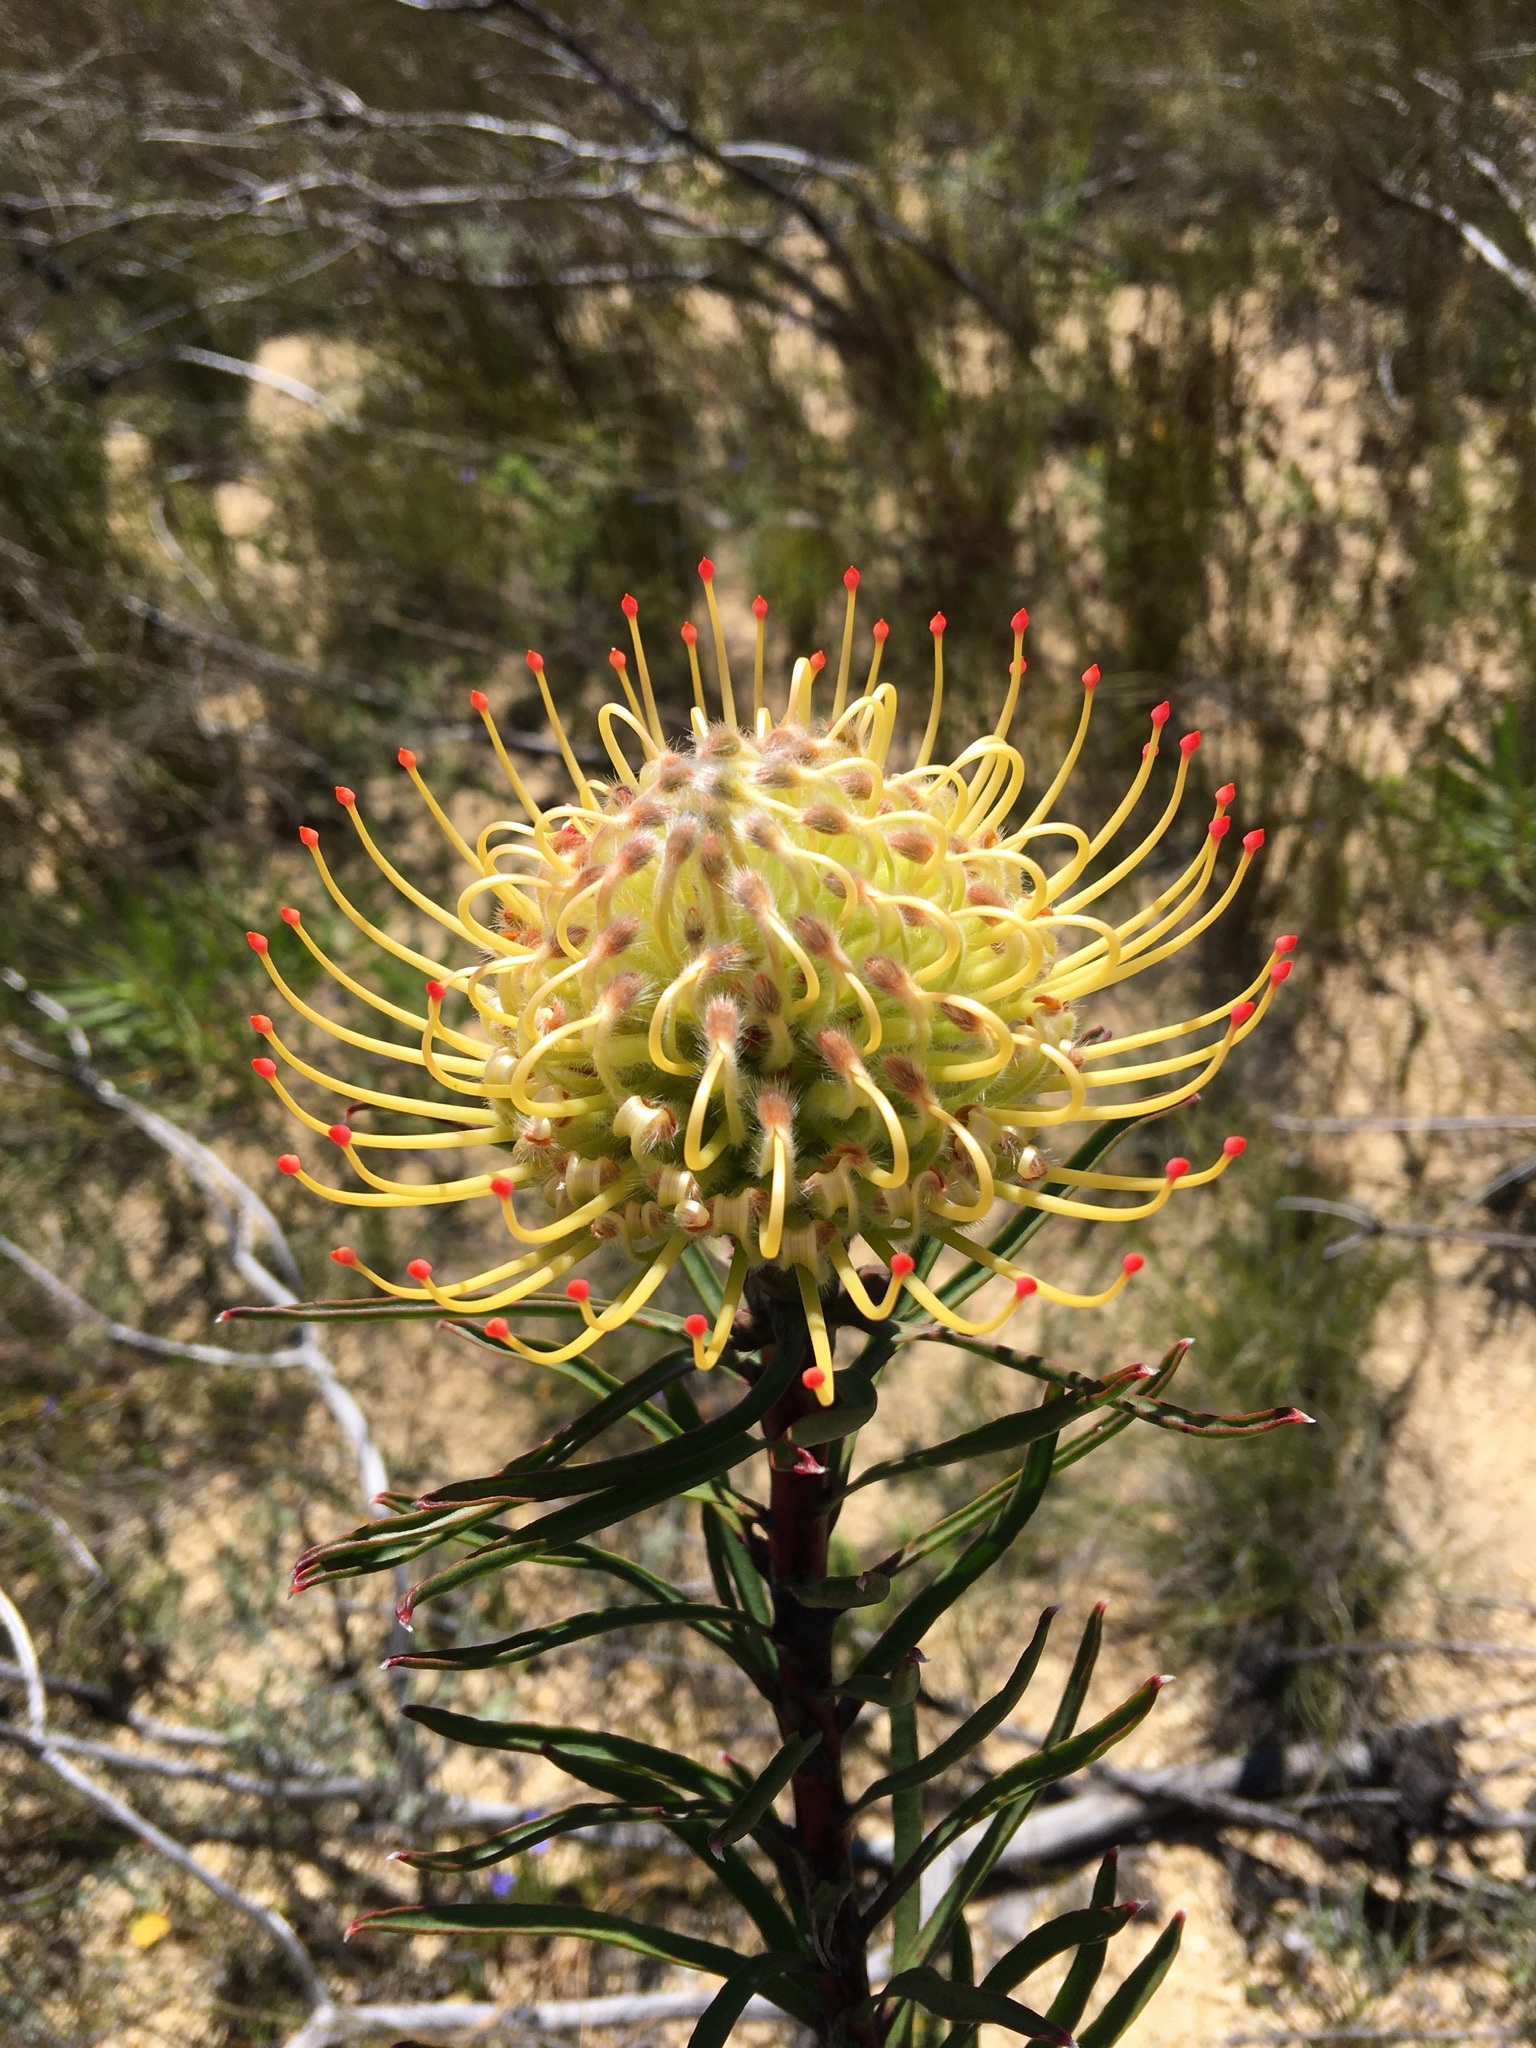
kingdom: Plantae
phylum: Tracheophyta
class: Magnoliopsida
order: Proteales
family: Proteaceae
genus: Leucospermum
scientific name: Leucospermum lineare
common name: Needle-leaf pincushion
